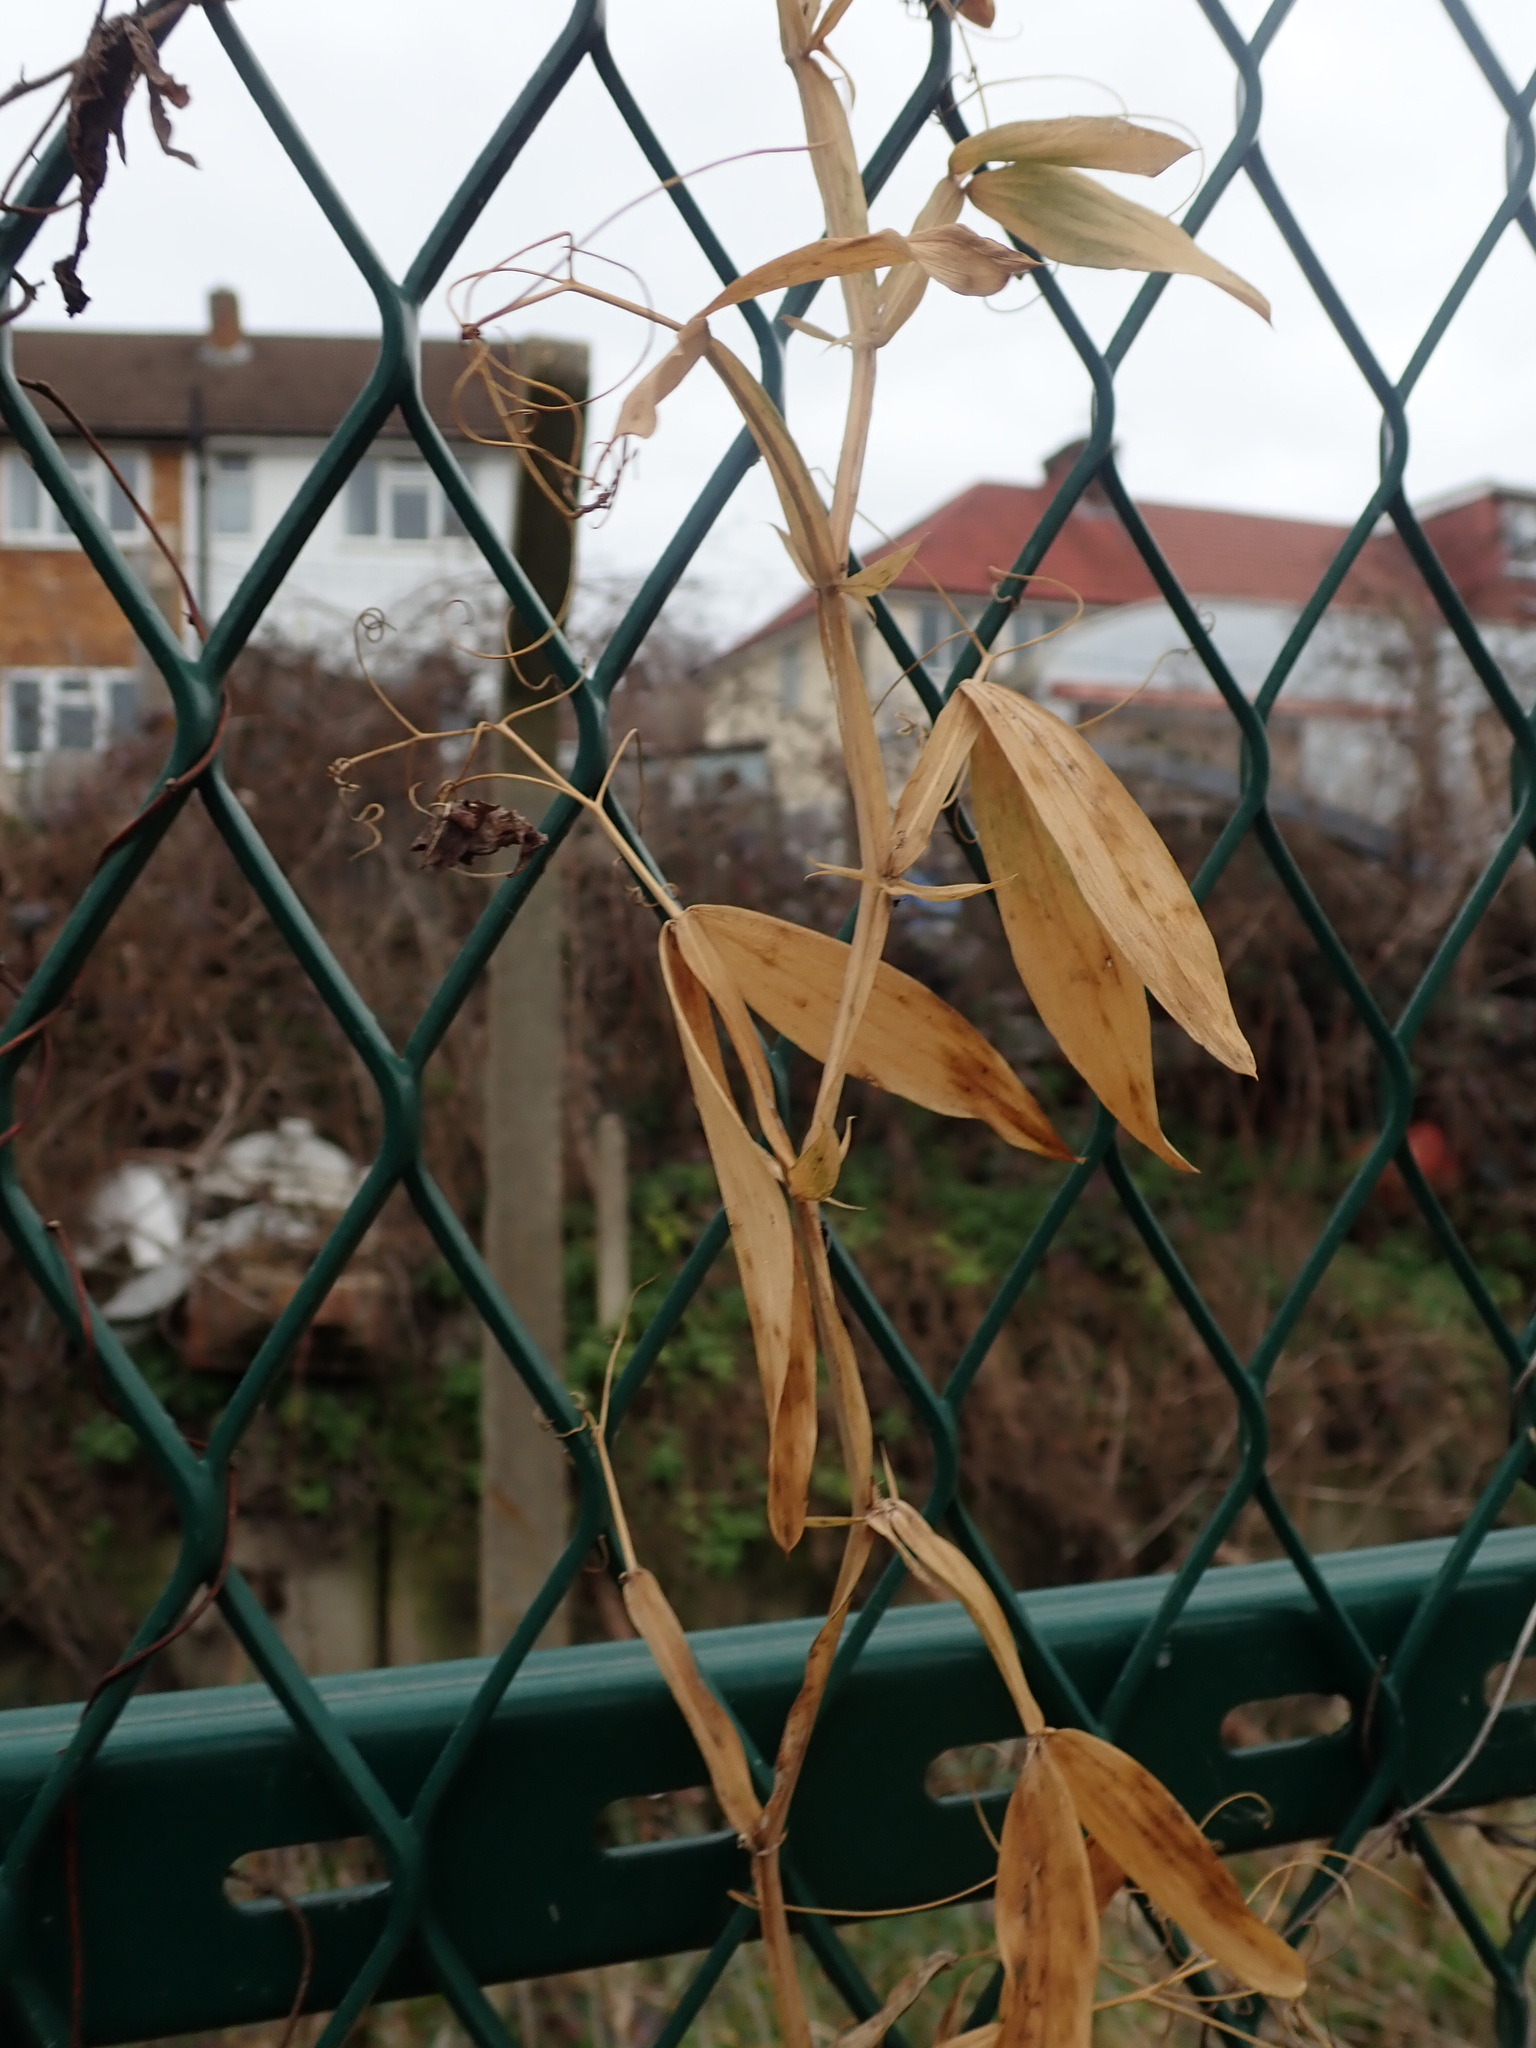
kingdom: Plantae
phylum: Tracheophyta
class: Magnoliopsida
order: Fabales
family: Fabaceae
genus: Lathyrus
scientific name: Lathyrus latifolius
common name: Perennial pea
